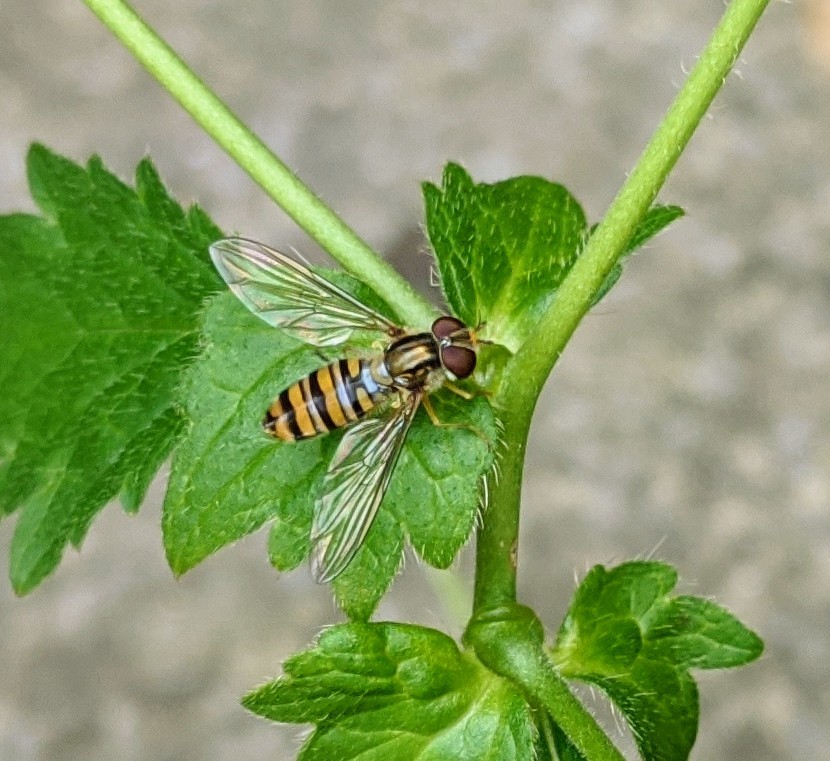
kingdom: Animalia
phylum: Arthropoda
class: Insecta
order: Diptera
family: Syrphidae
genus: Episyrphus
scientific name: Episyrphus balteatus
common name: Marmalade hoverfly
